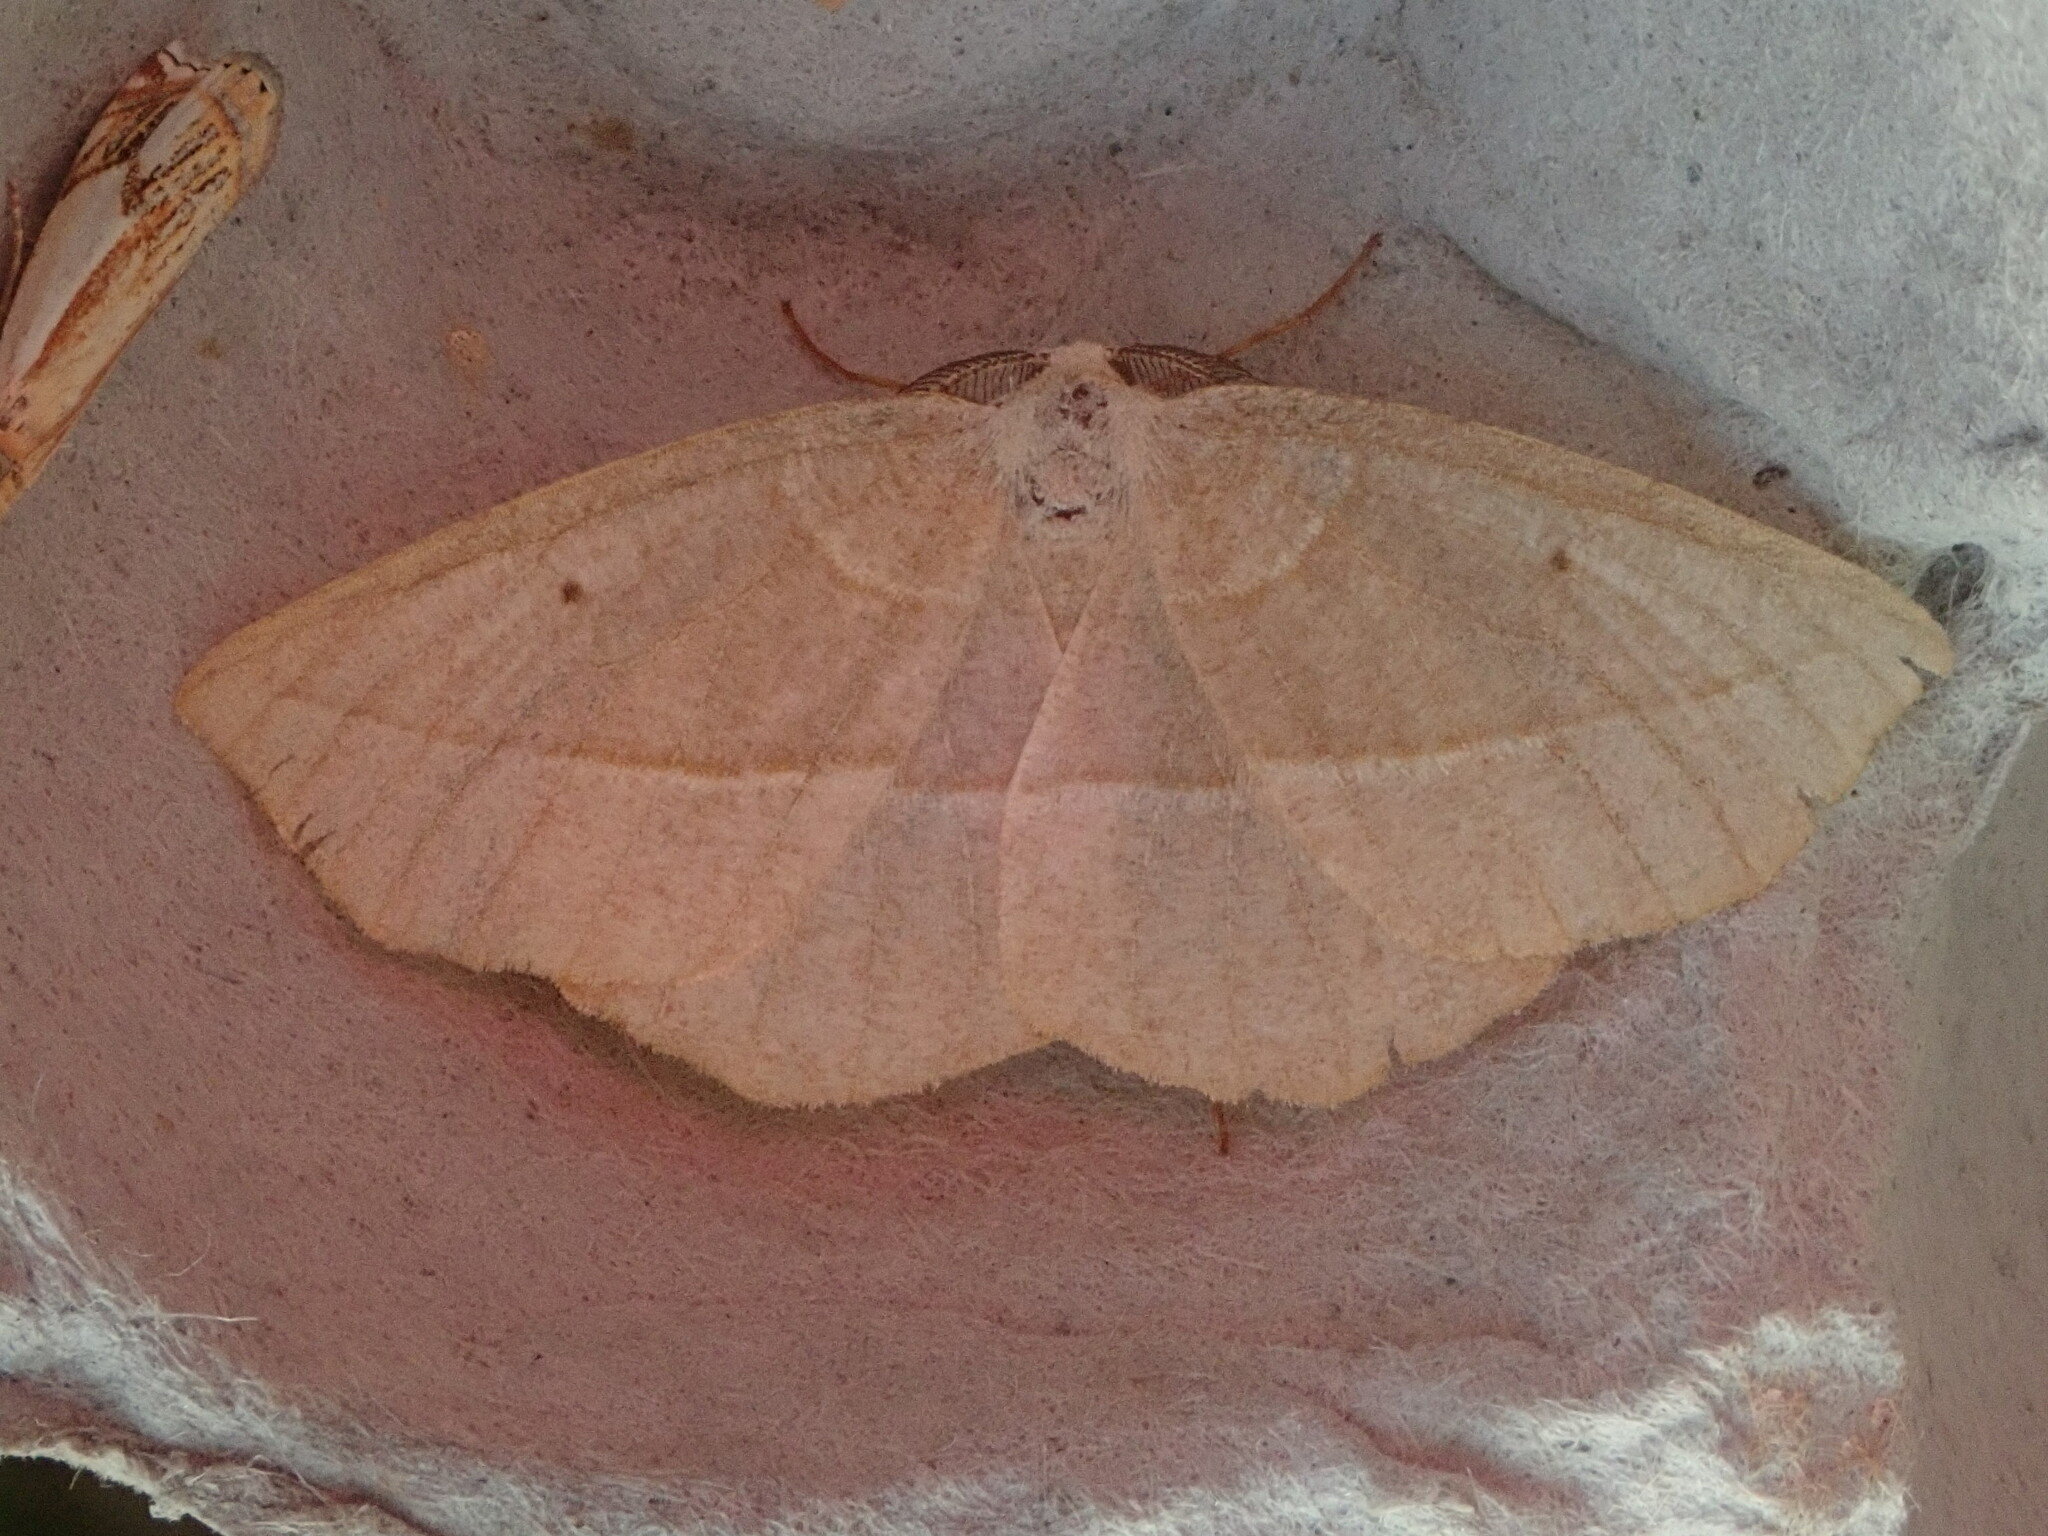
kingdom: Animalia
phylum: Arthropoda
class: Insecta
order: Lepidoptera
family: Geometridae
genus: Eusarca
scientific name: Eusarca confusaria
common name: Confused eusarca
